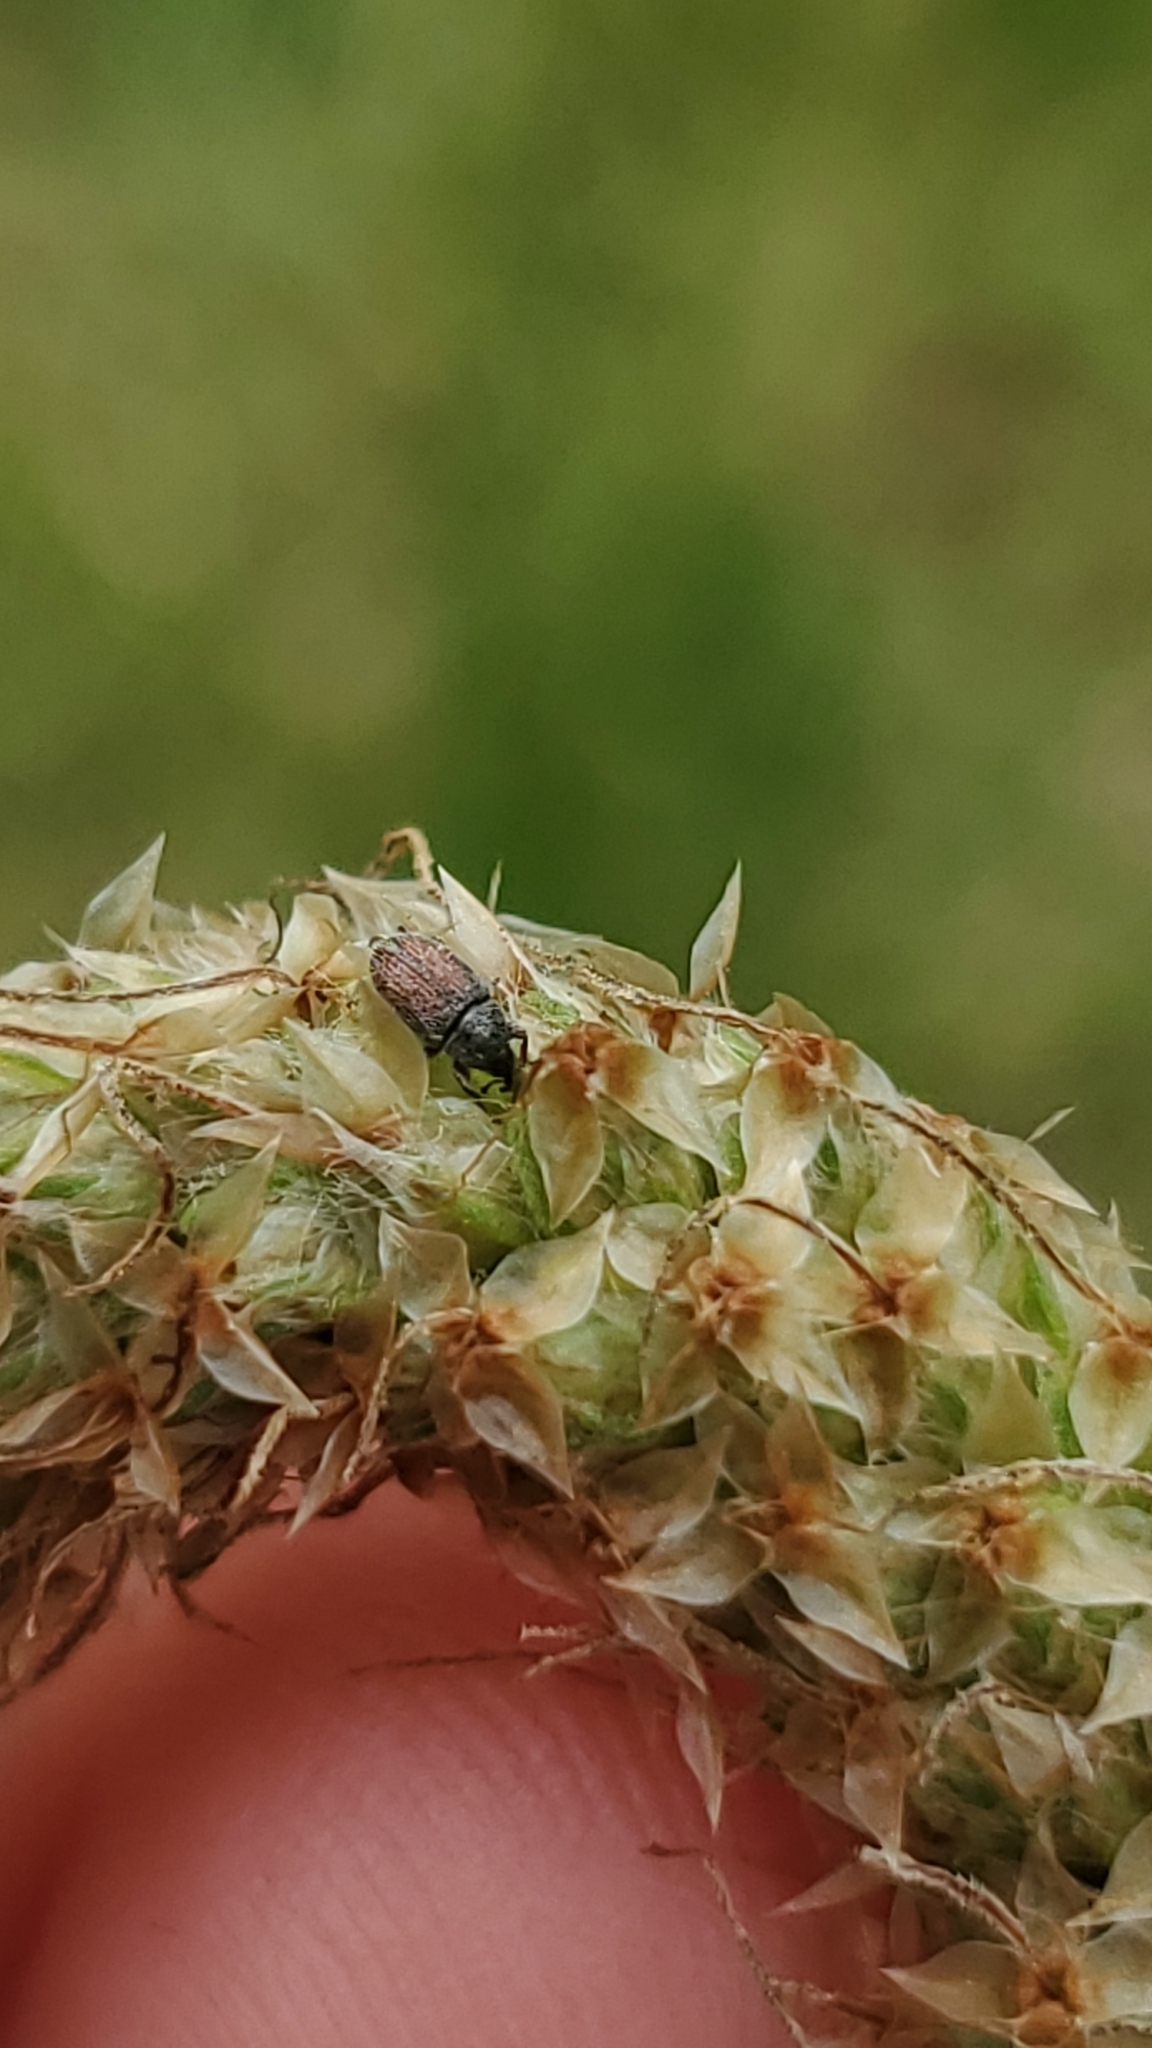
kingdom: Animalia
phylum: Arthropoda
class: Insecta
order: Coleoptera
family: Curculionidae
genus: Mecinus
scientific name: Mecinus pascuorum
